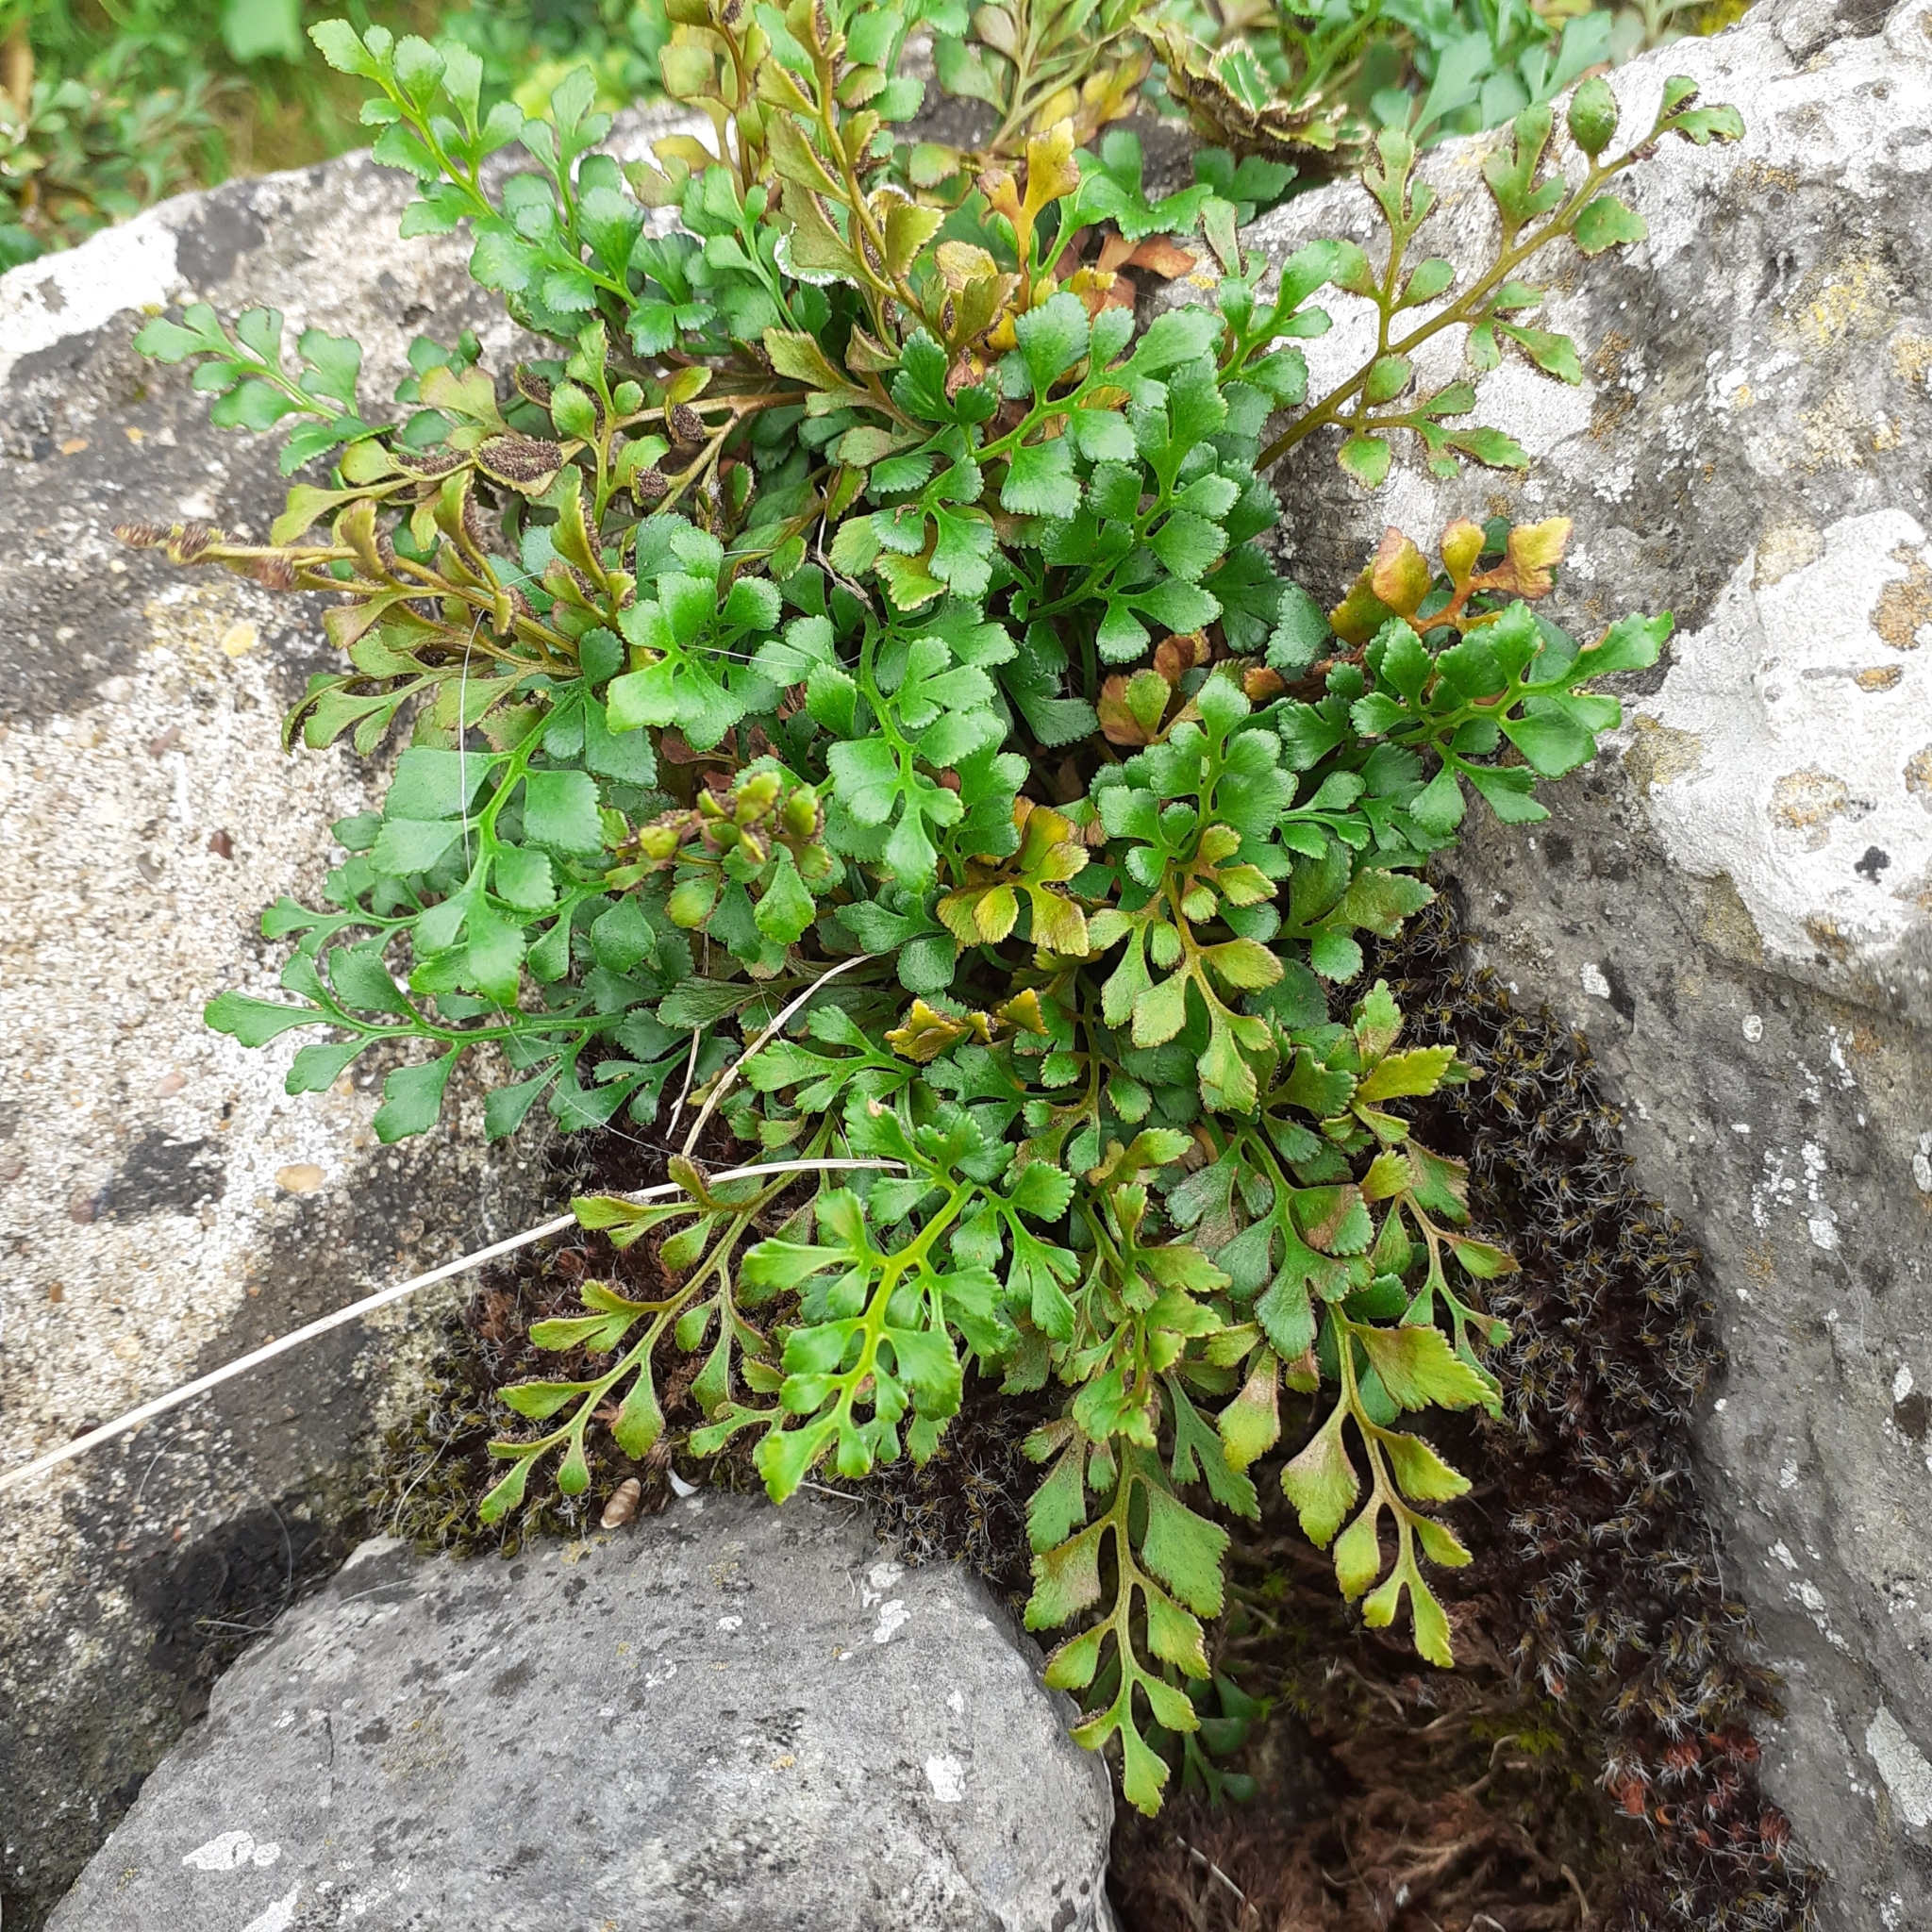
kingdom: Plantae
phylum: Tracheophyta
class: Polypodiopsida
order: Polypodiales
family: Aspleniaceae
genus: Asplenium
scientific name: Asplenium ruta-muraria
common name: Wall-rue
